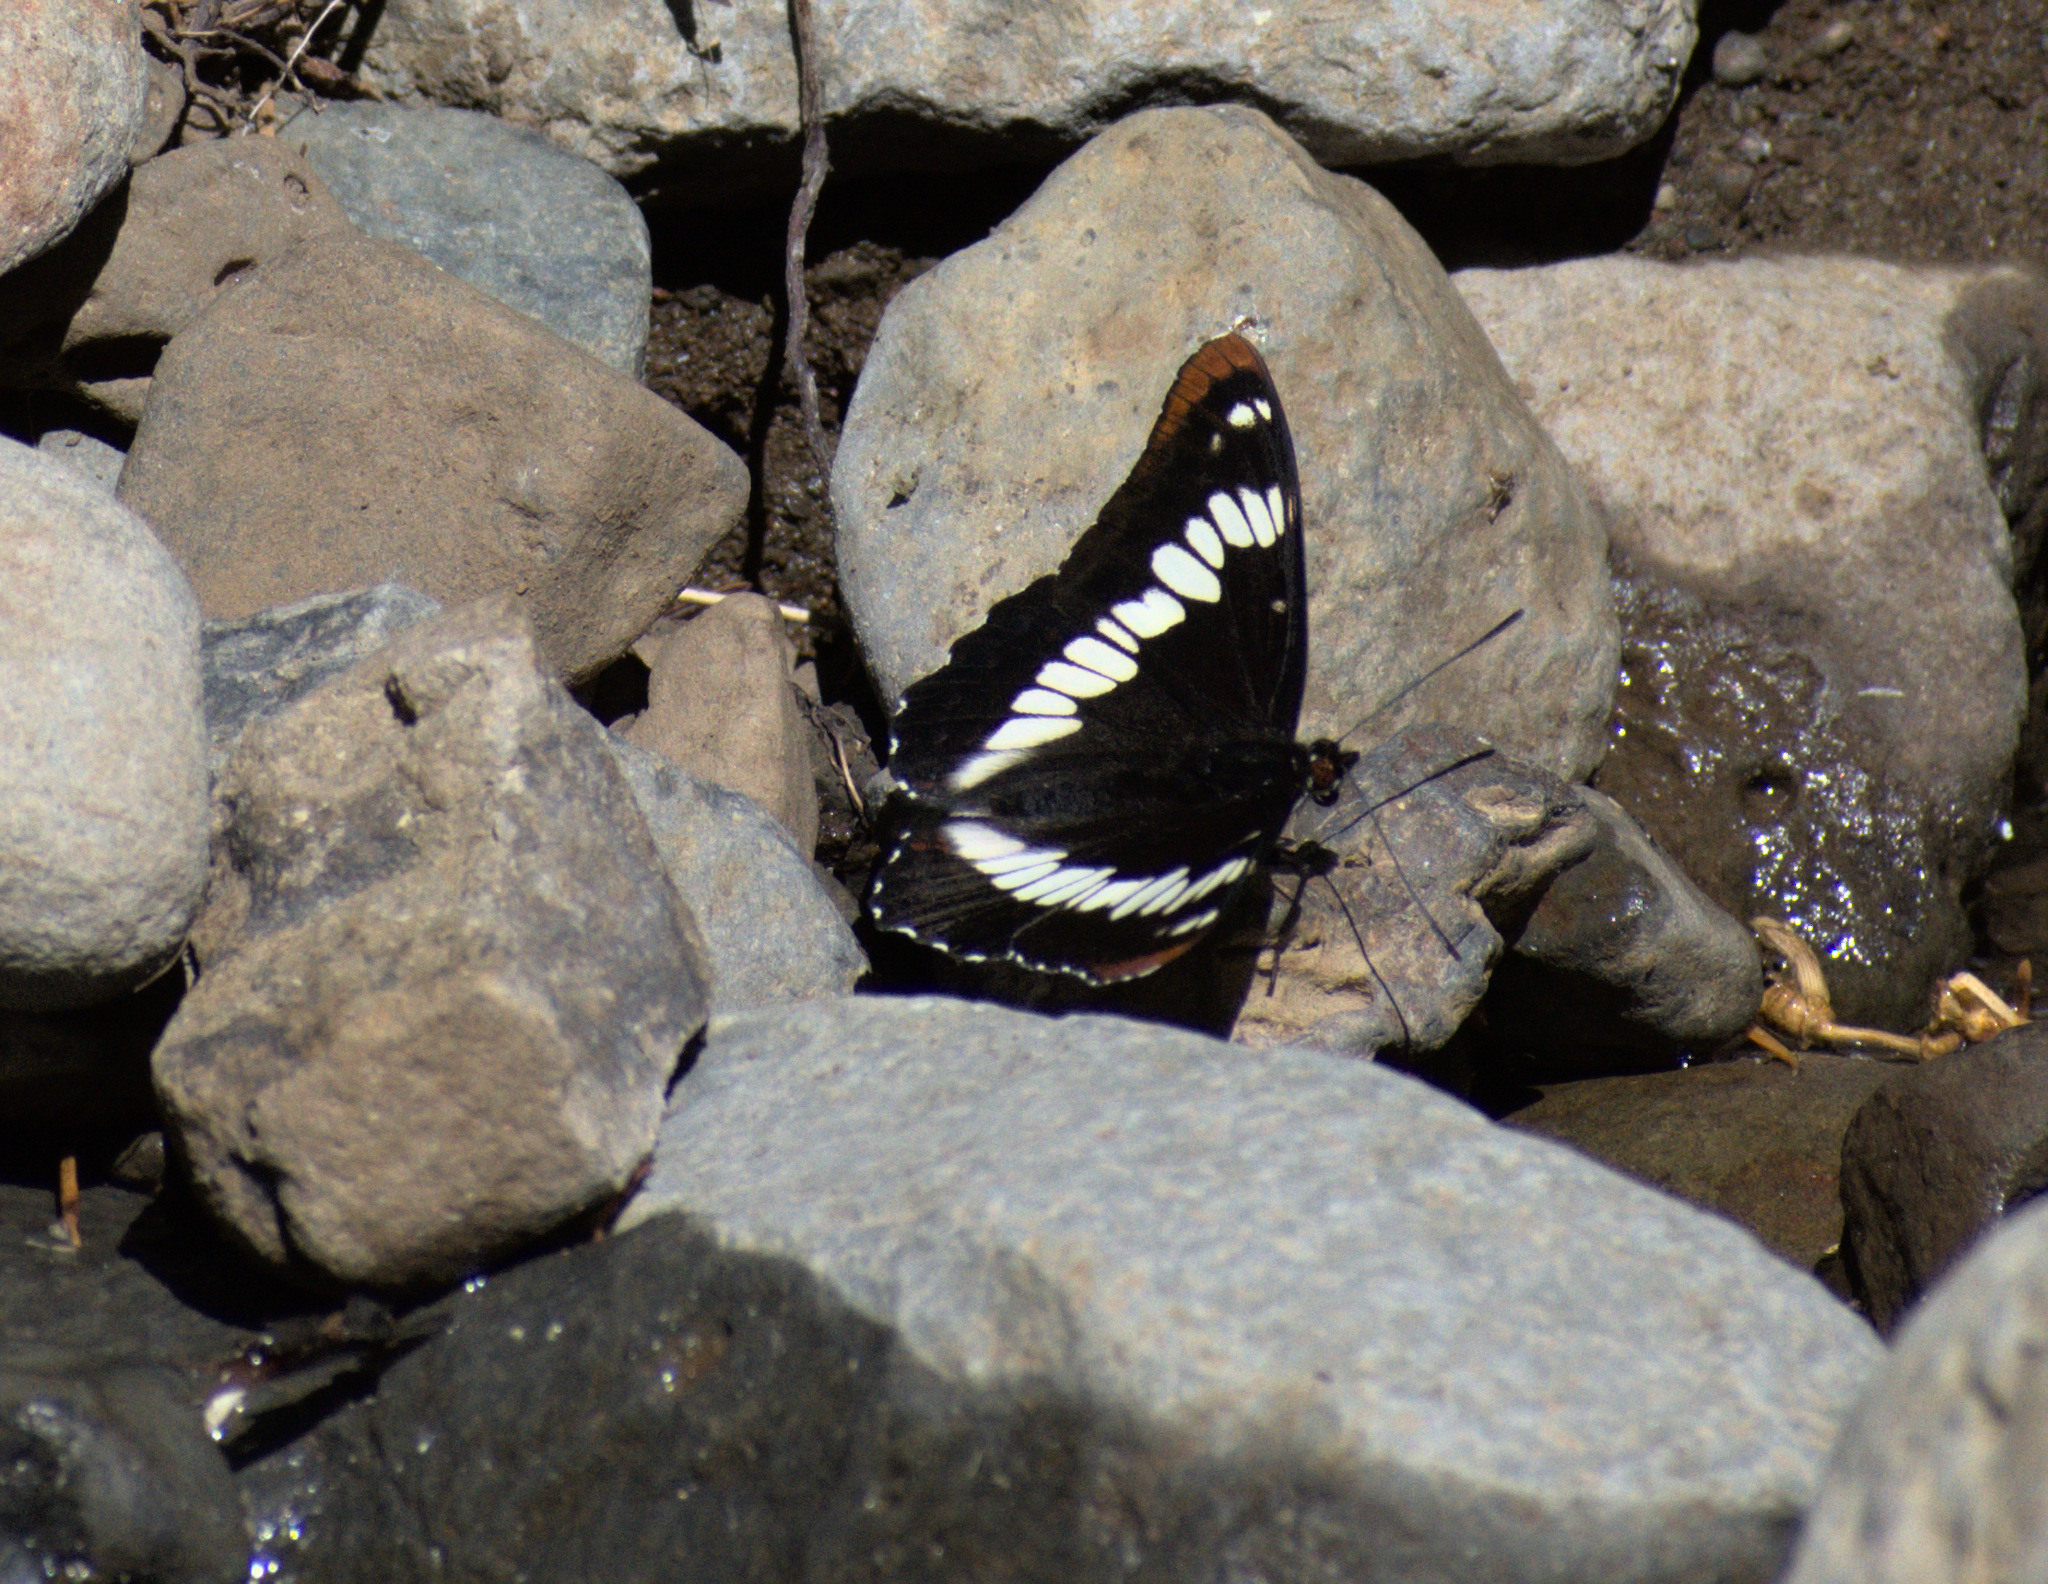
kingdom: Animalia
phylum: Arthropoda
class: Insecta
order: Lepidoptera
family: Nymphalidae
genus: Limenitis
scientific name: Limenitis lorquini
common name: Lorquin's admiral
